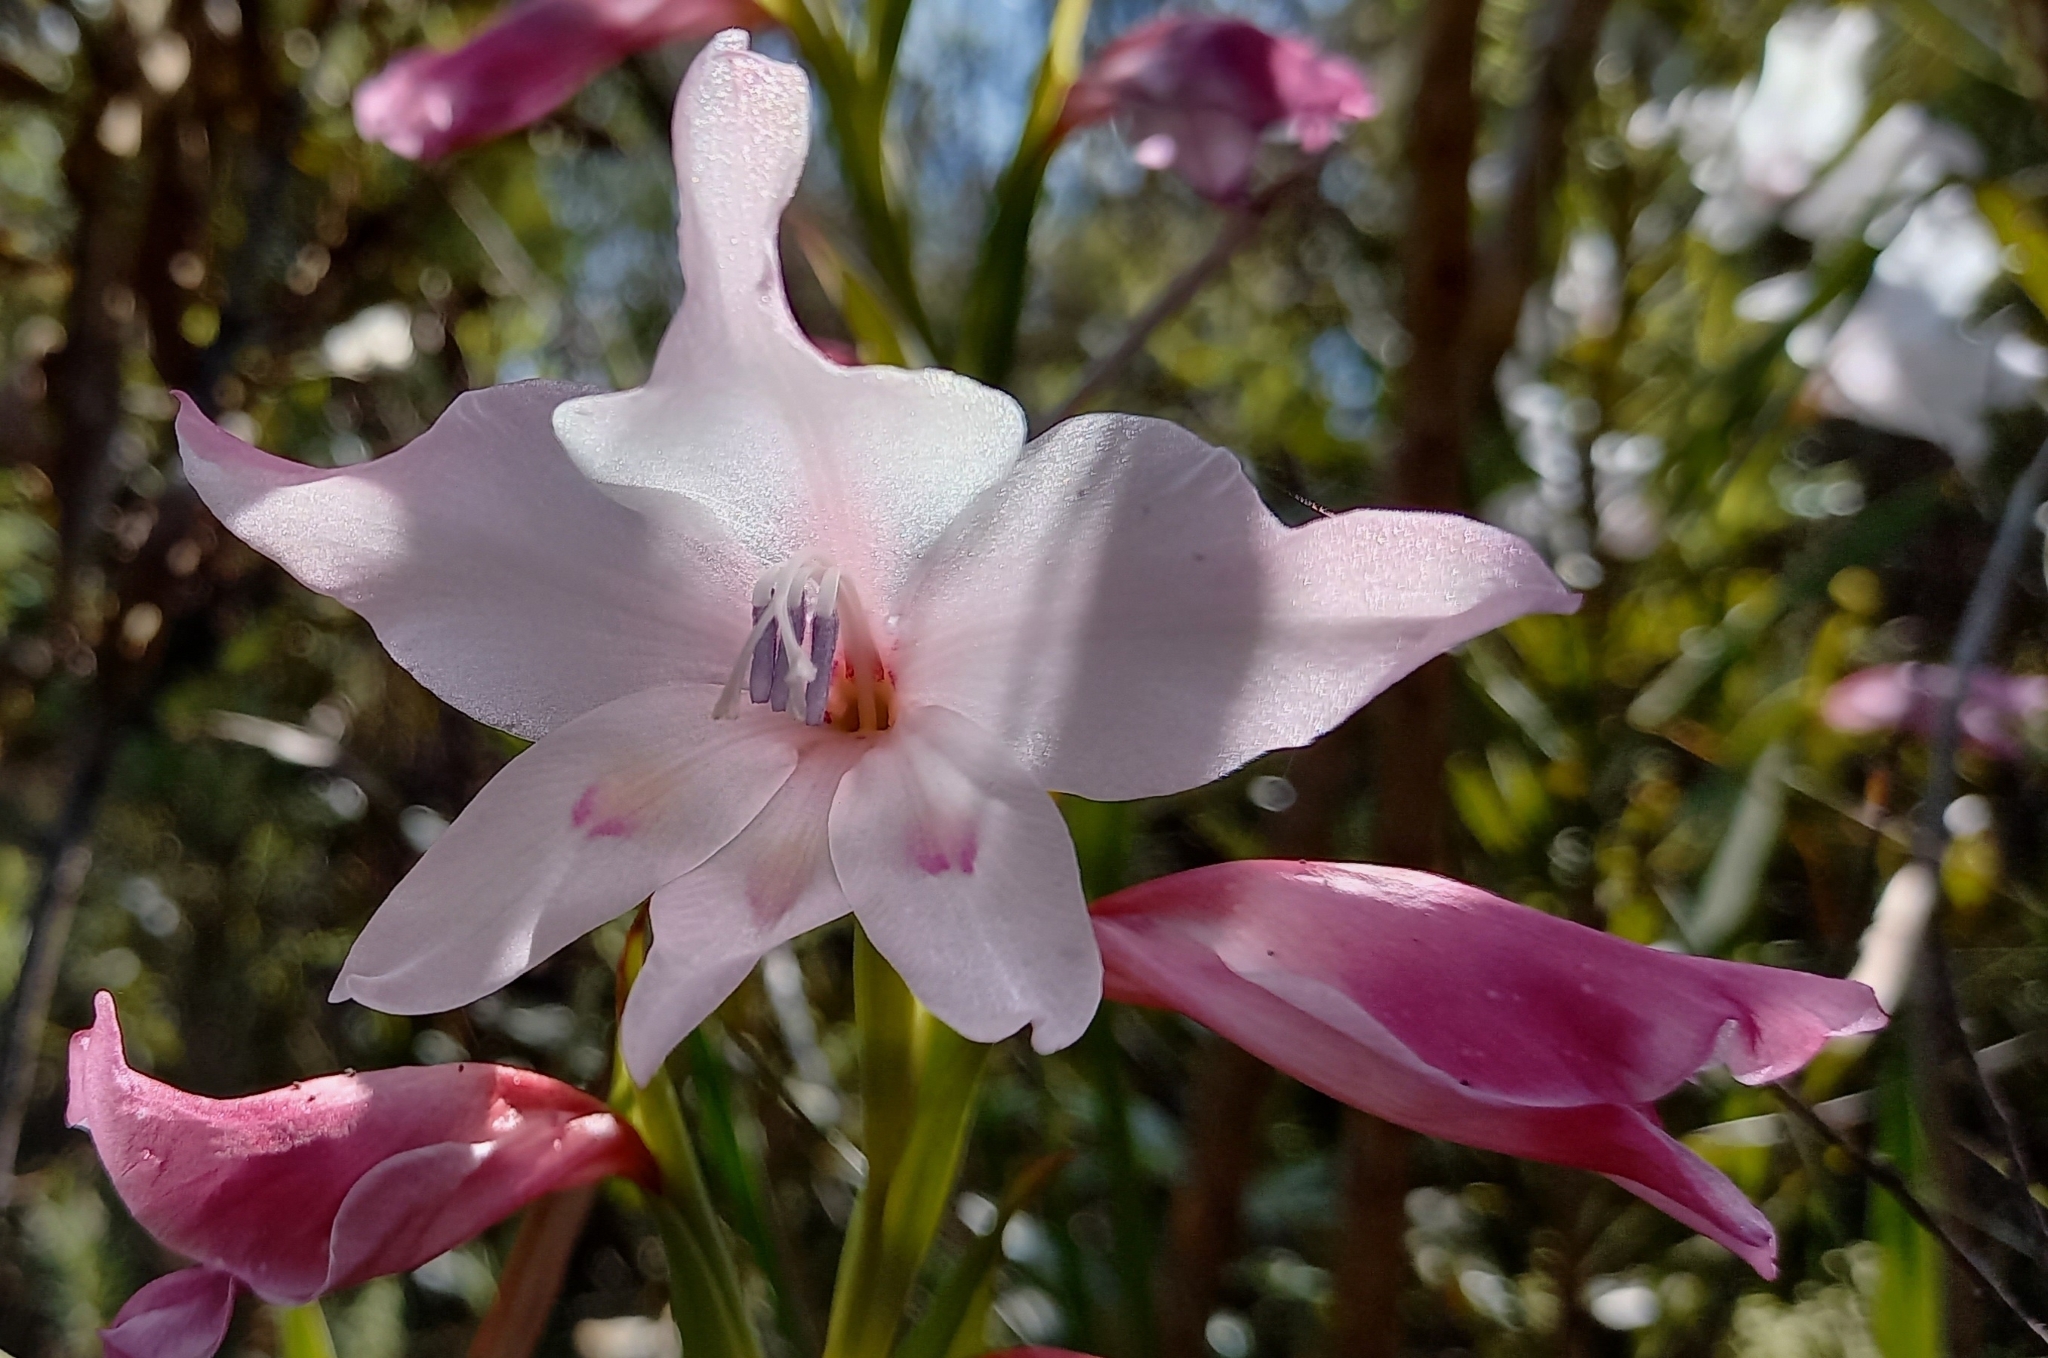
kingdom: Plantae
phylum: Tracheophyta
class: Liliopsida
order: Asparagales
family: Iridaceae
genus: Gladiolus
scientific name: Gladiolus carneus
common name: Painted-lady
